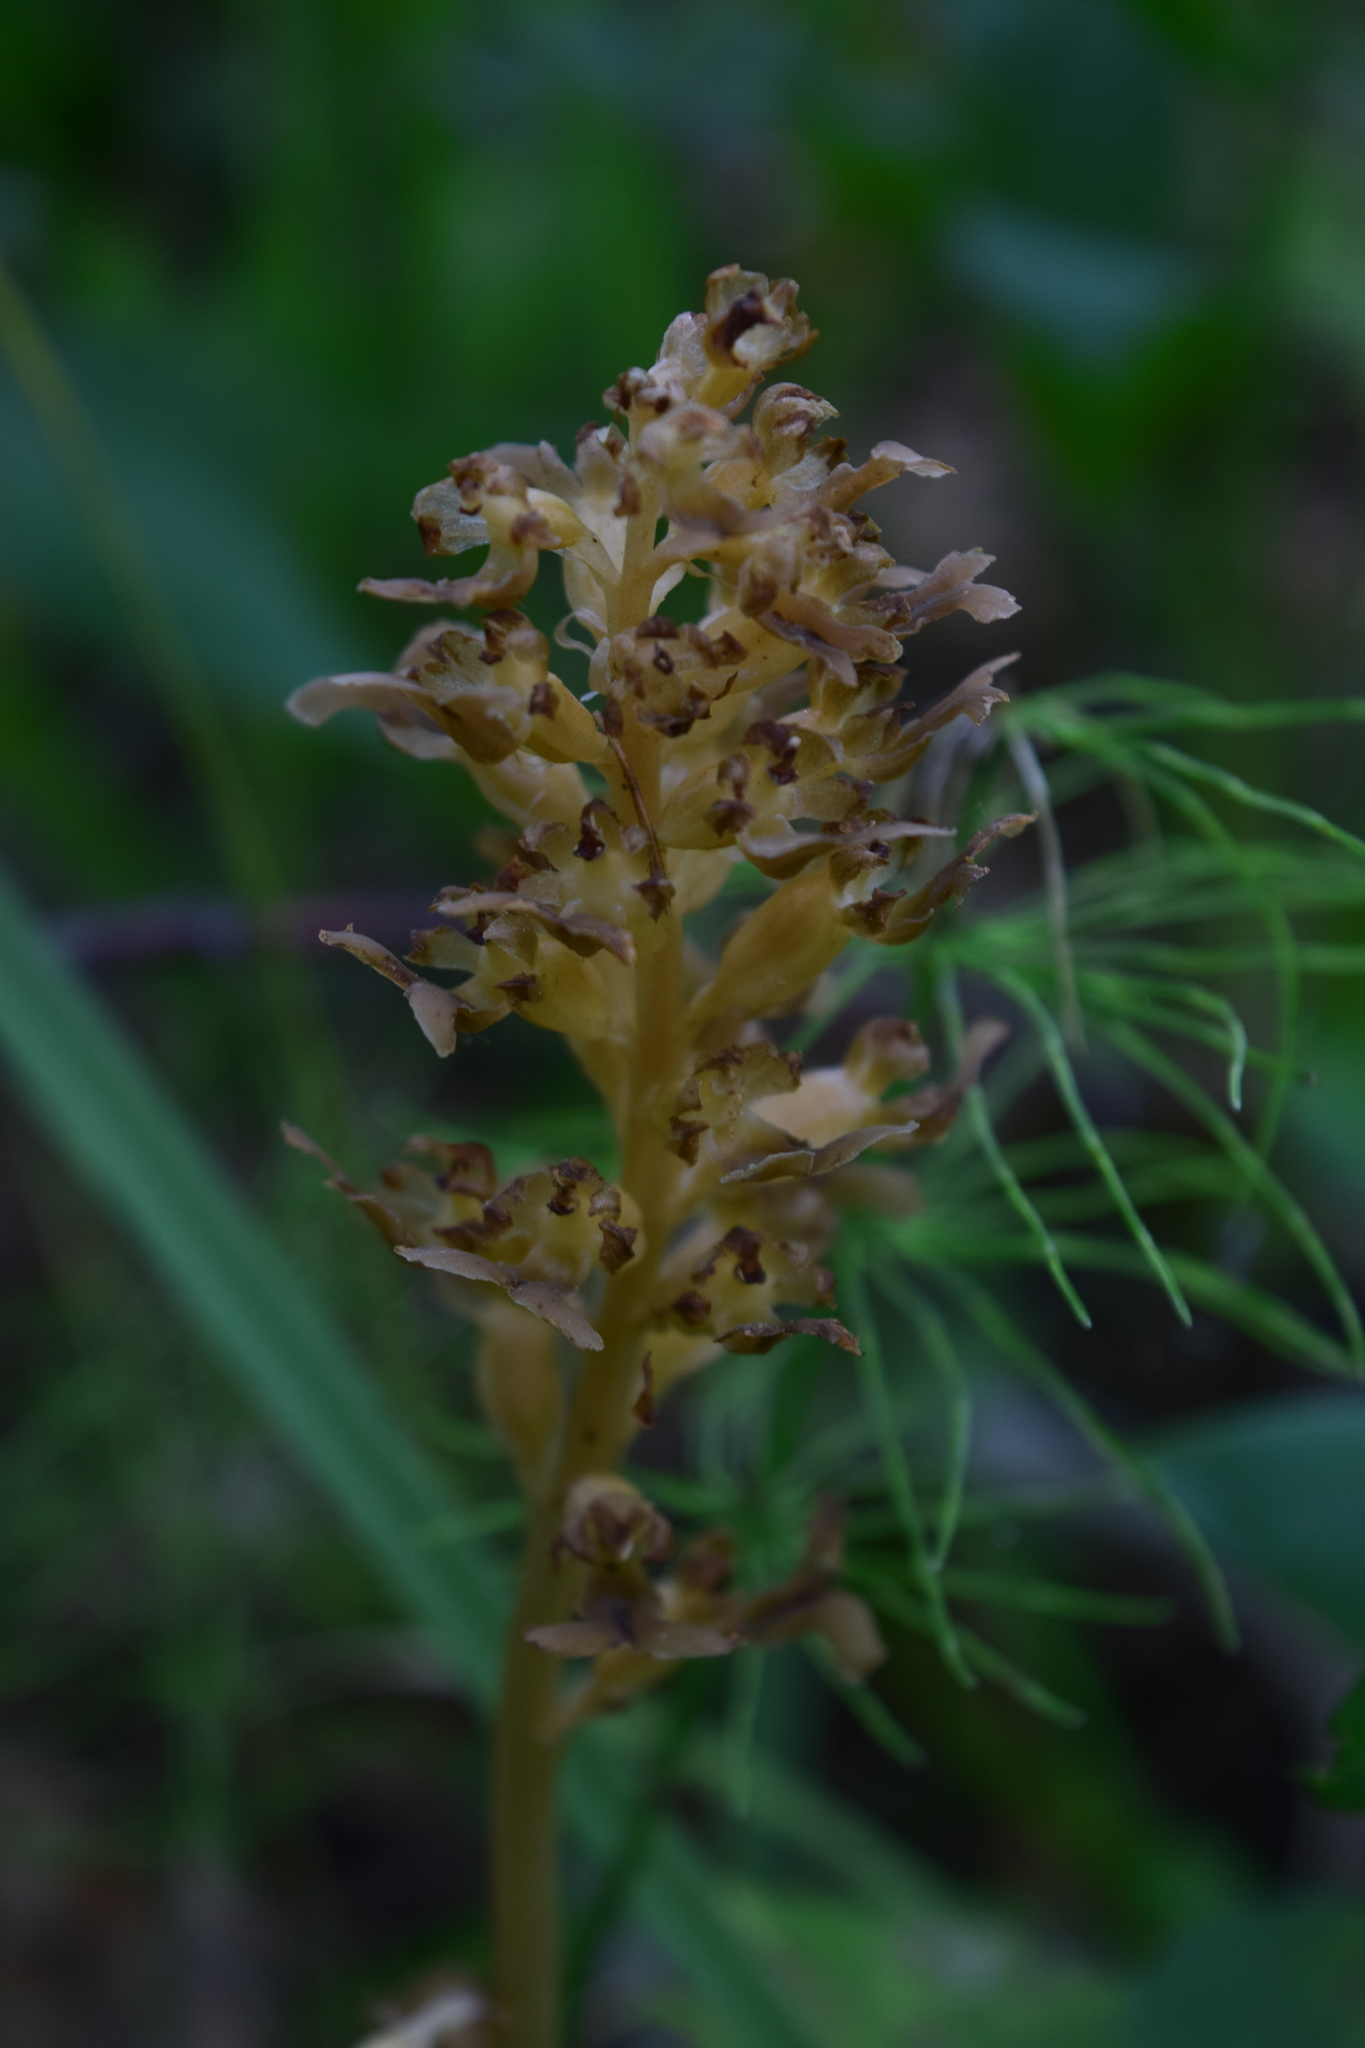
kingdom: Plantae
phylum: Tracheophyta
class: Liliopsida
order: Asparagales
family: Orchidaceae
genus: Neottia
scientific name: Neottia nidus-avis
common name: Bird's-nest orchid
